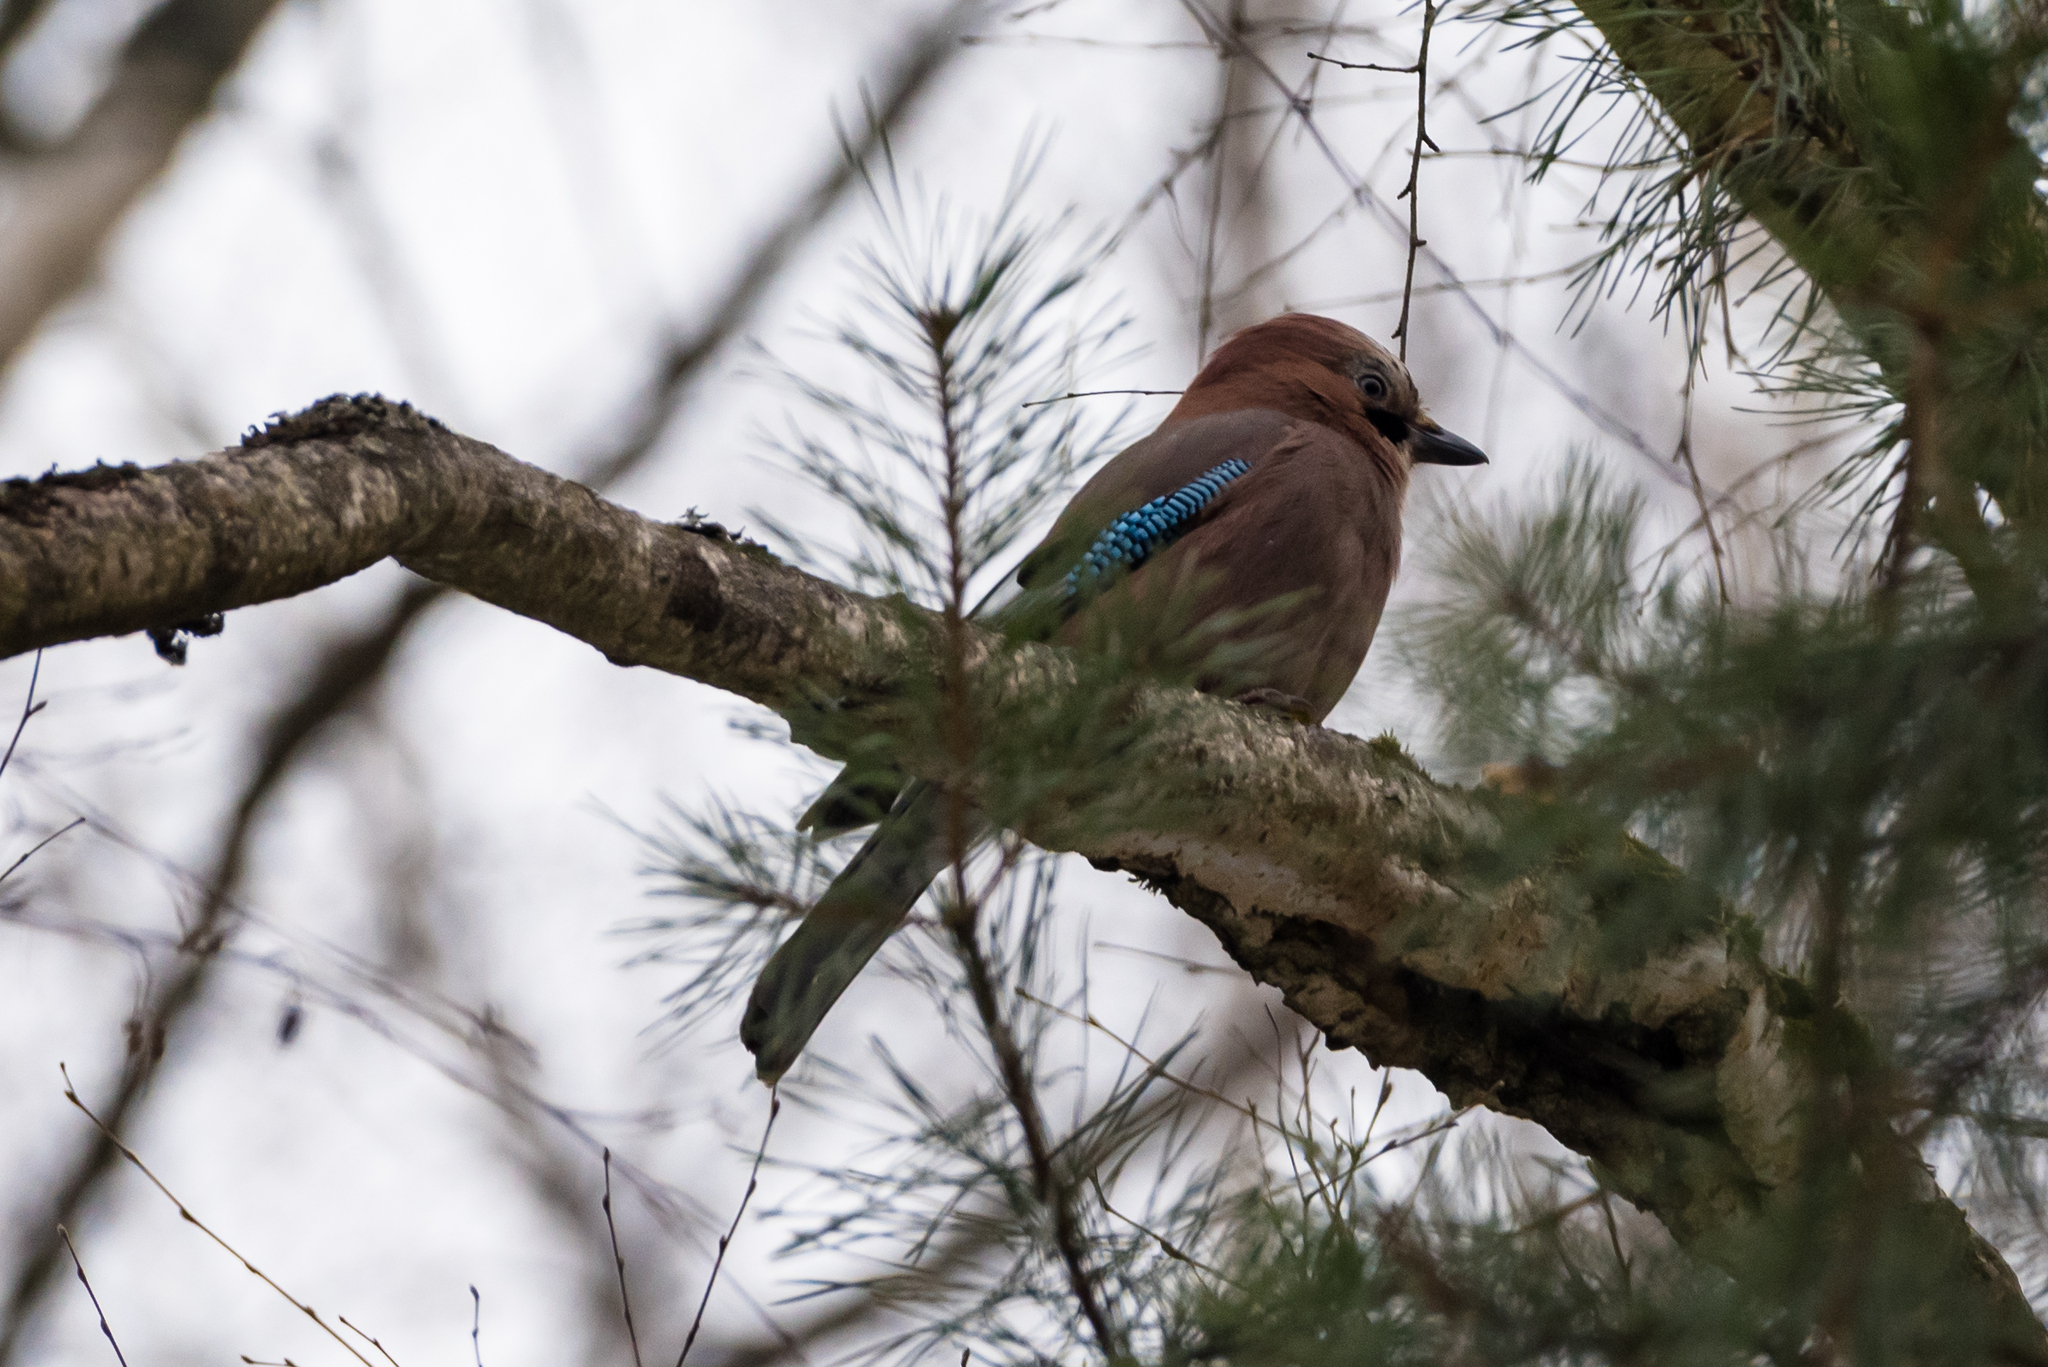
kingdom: Animalia
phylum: Chordata
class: Aves
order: Passeriformes
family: Corvidae
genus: Garrulus
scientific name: Garrulus glandarius
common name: Eurasian jay
